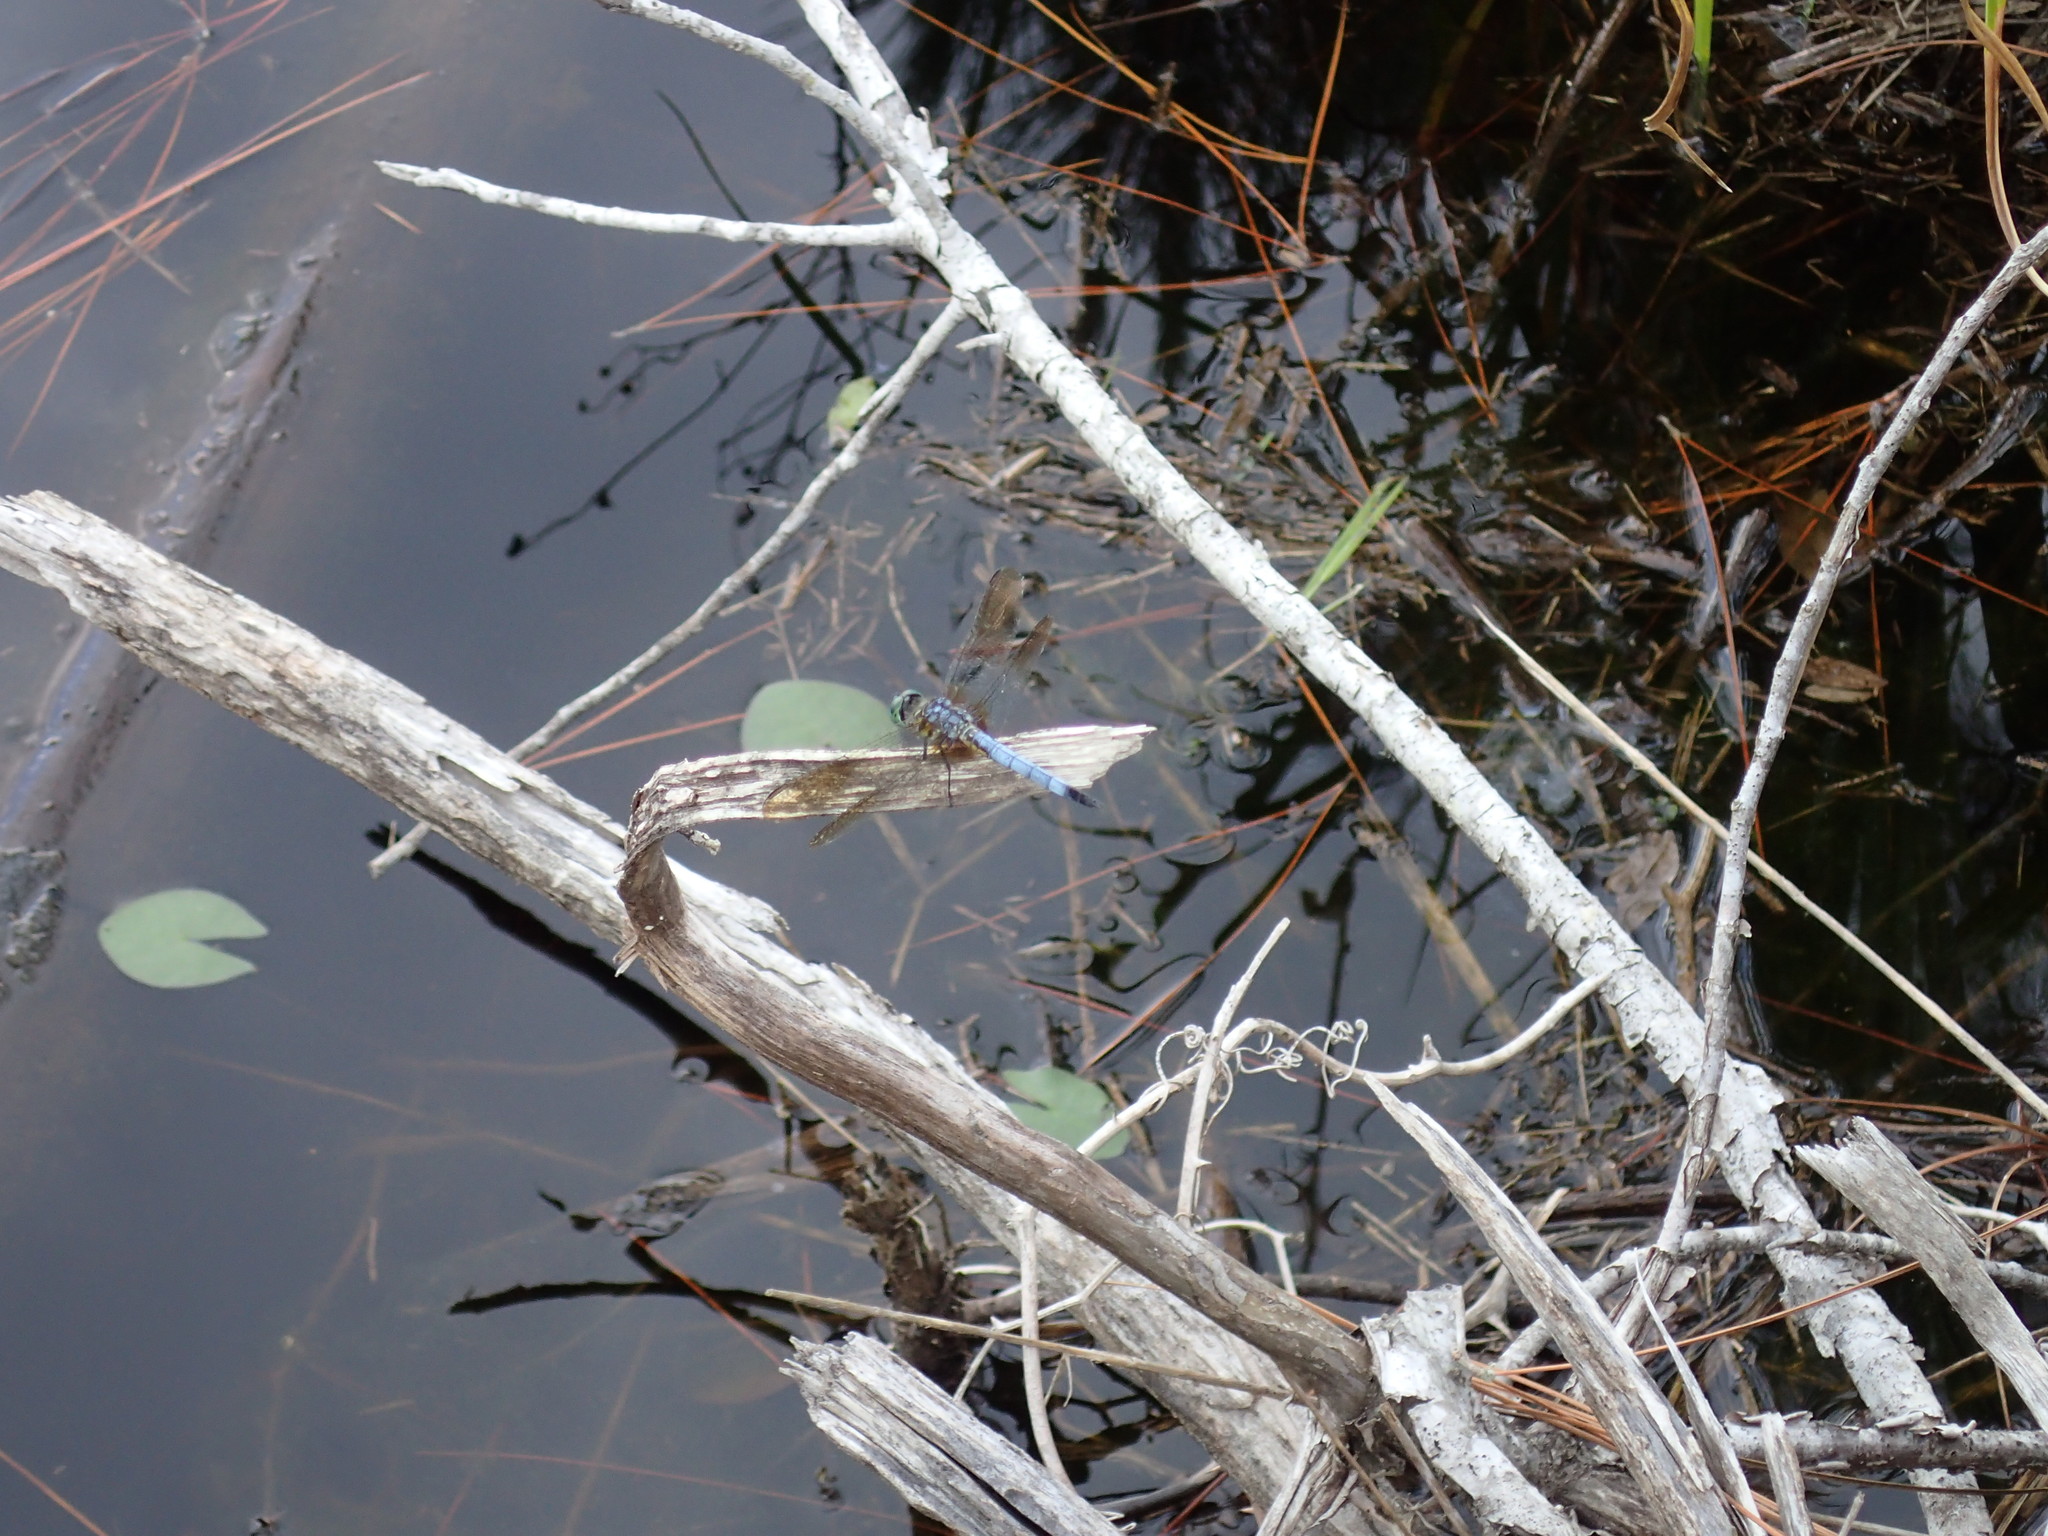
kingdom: Animalia
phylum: Arthropoda
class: Insecta
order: Odonata
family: Libellulidae
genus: Pachydiplax
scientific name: Pachydiplax longipennis
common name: Blue dasher
